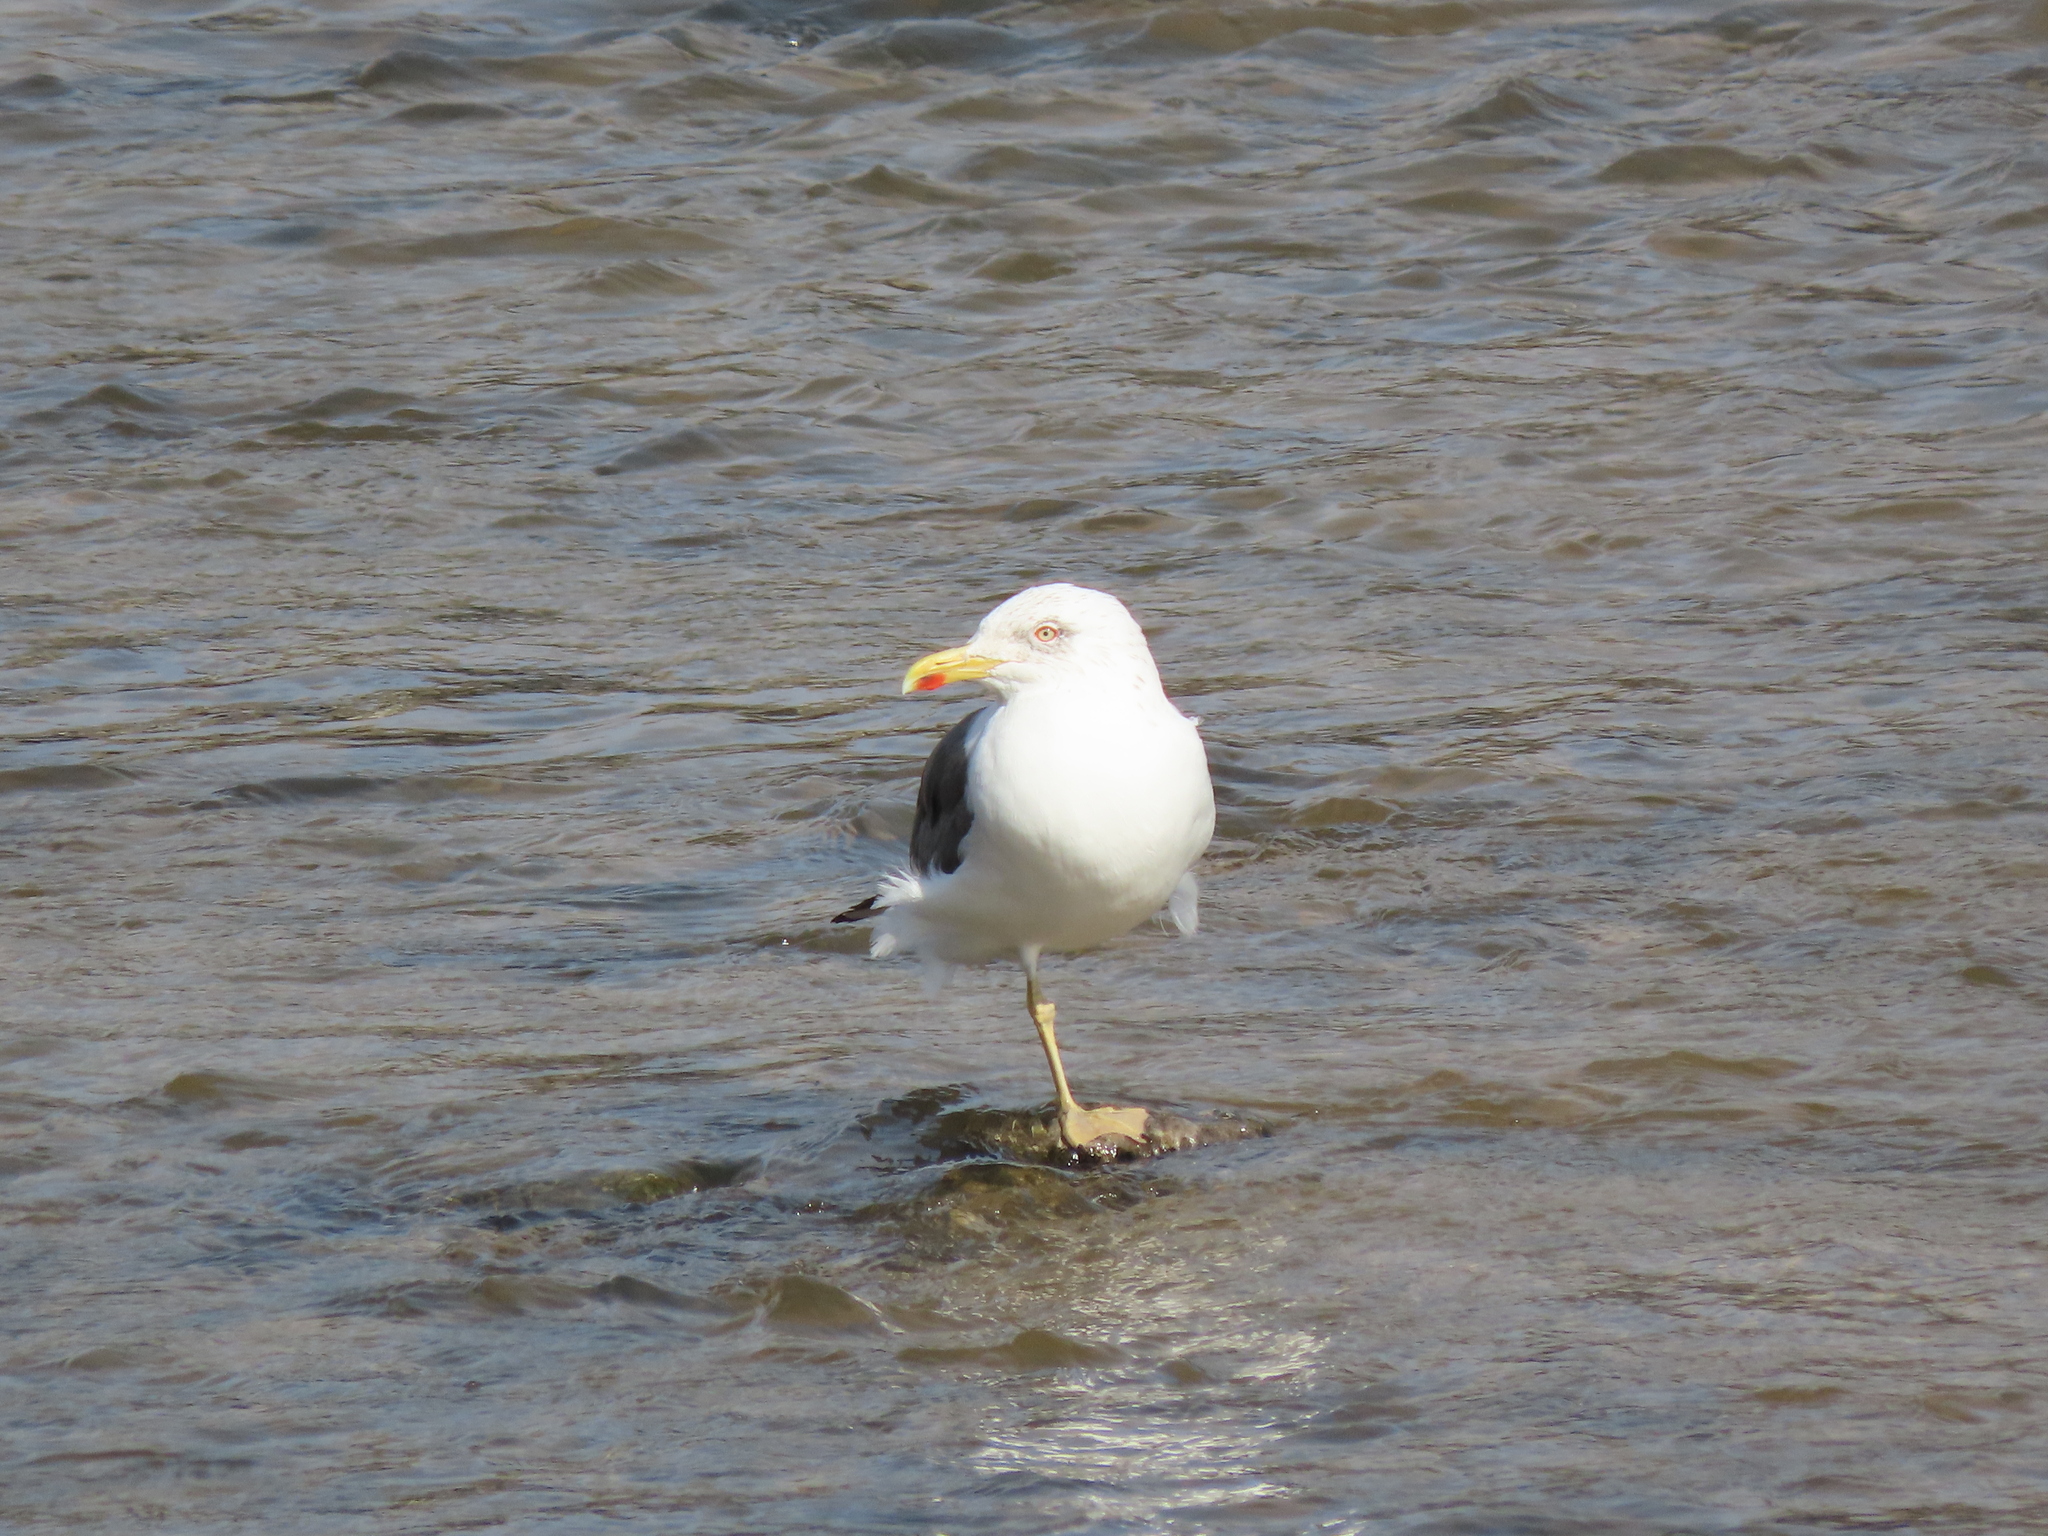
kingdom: Animalia
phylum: Chordata
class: Aves
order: Charadriiformes
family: Laridae
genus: Larus
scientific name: Larus fuscus
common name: Lesser black-backed gull
